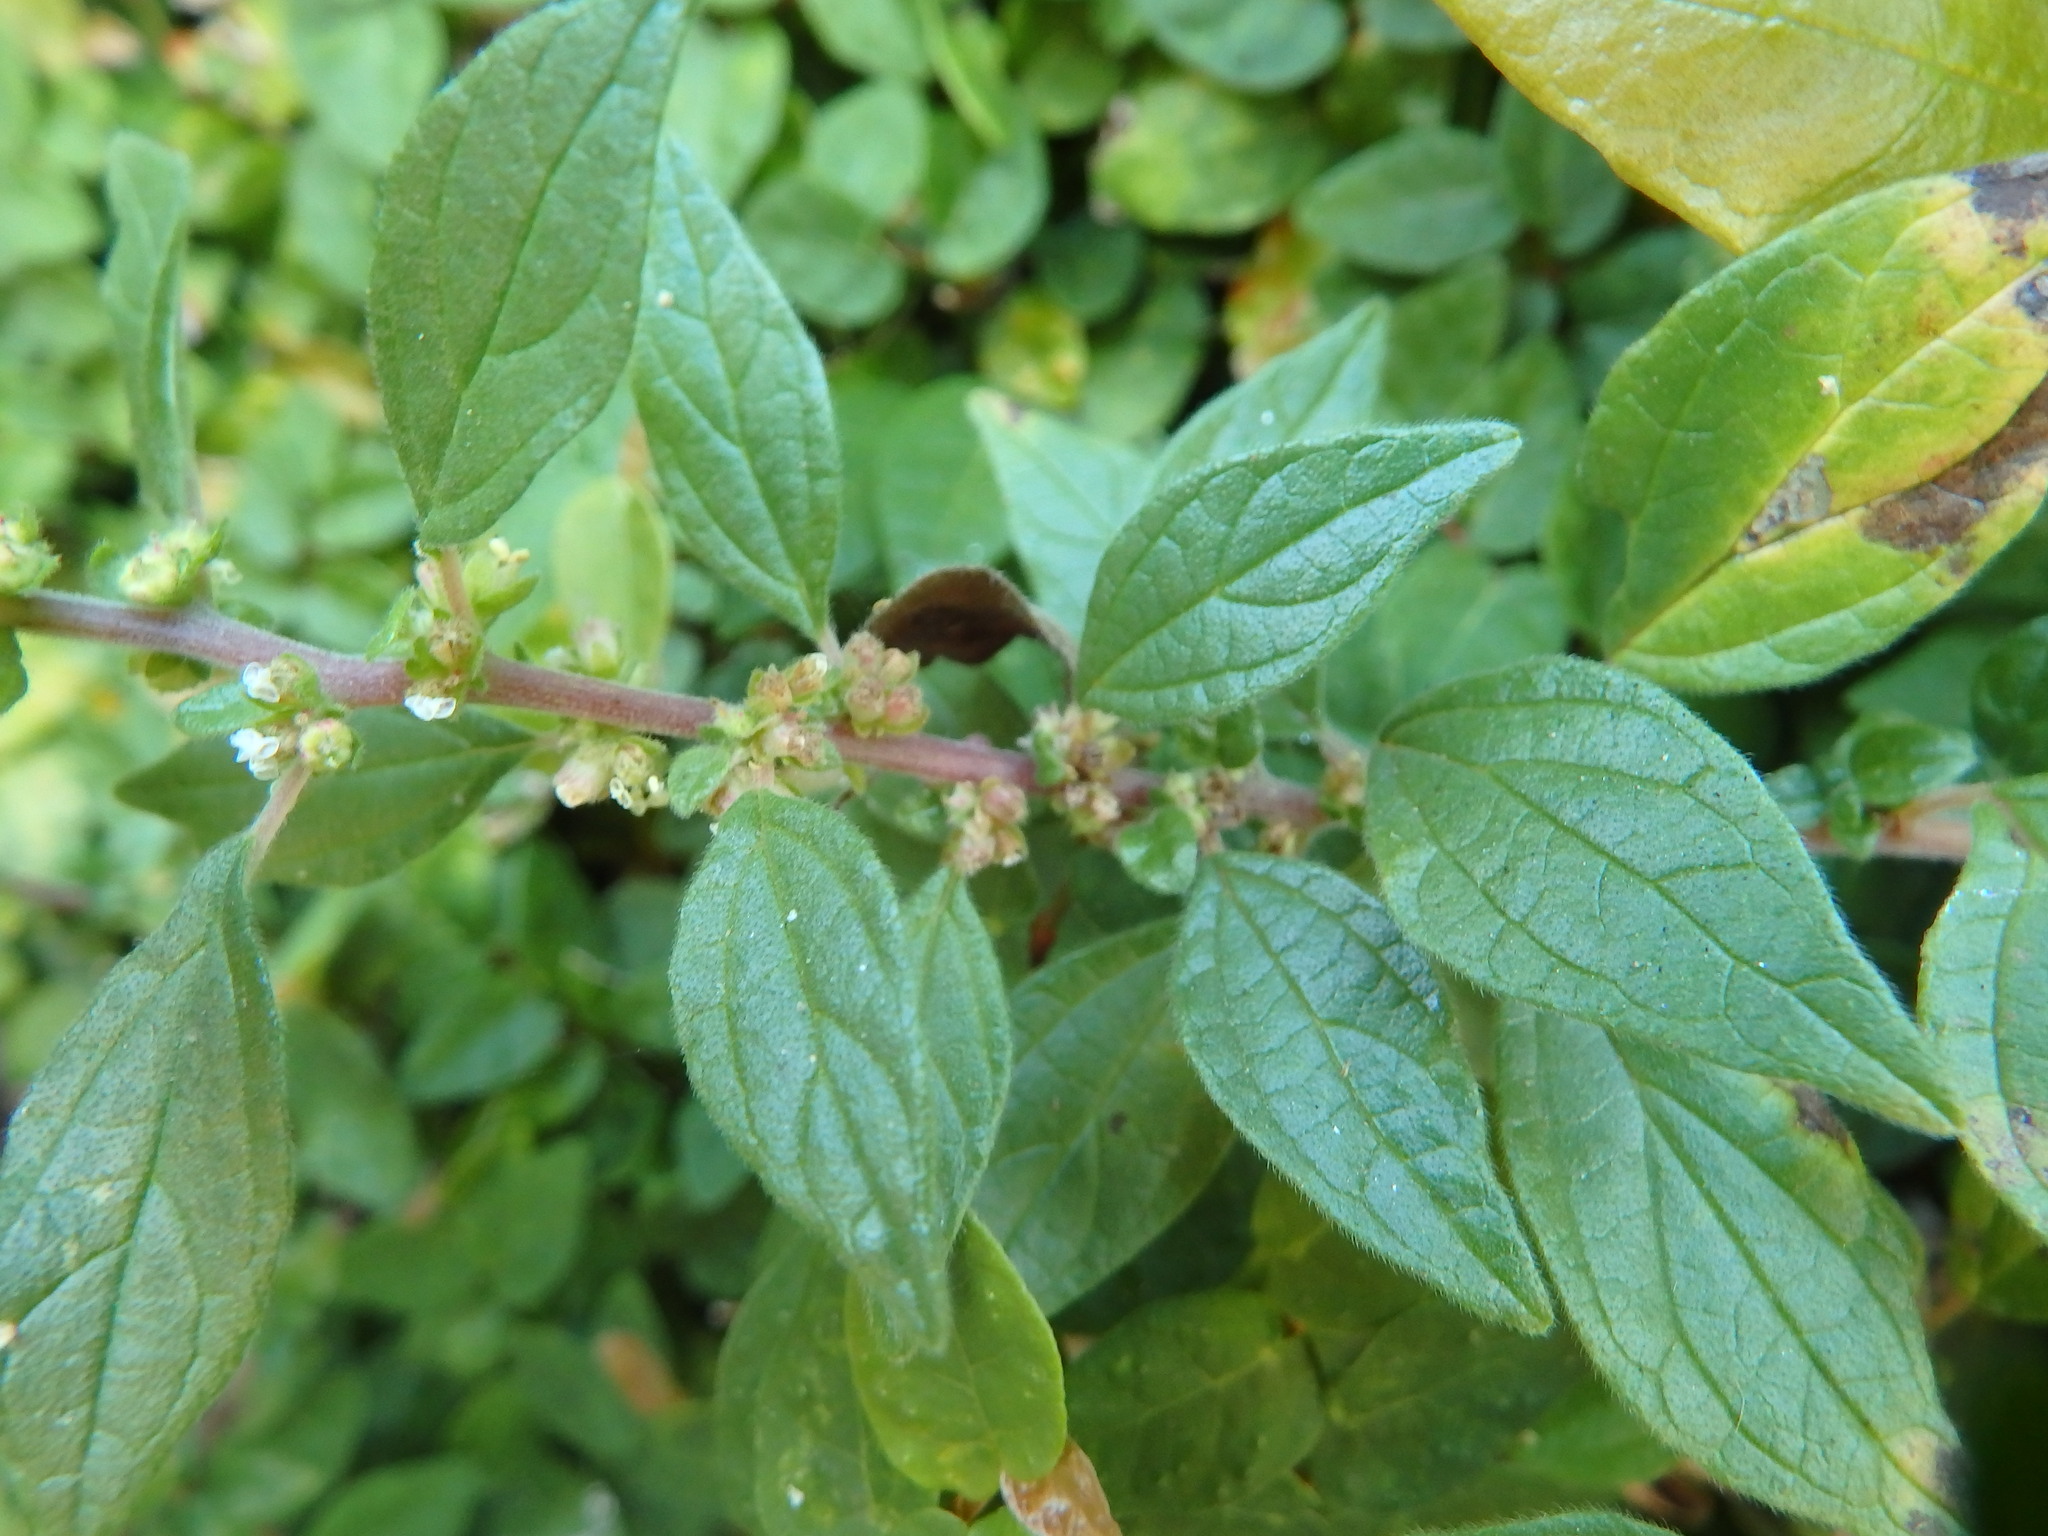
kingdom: Plantae
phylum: Tracheophyta
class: Magnoliopsida
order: Rosales
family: Urticaceae
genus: Parietaria
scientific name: Parietaria judaica
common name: Pellitory-of-the-wall
